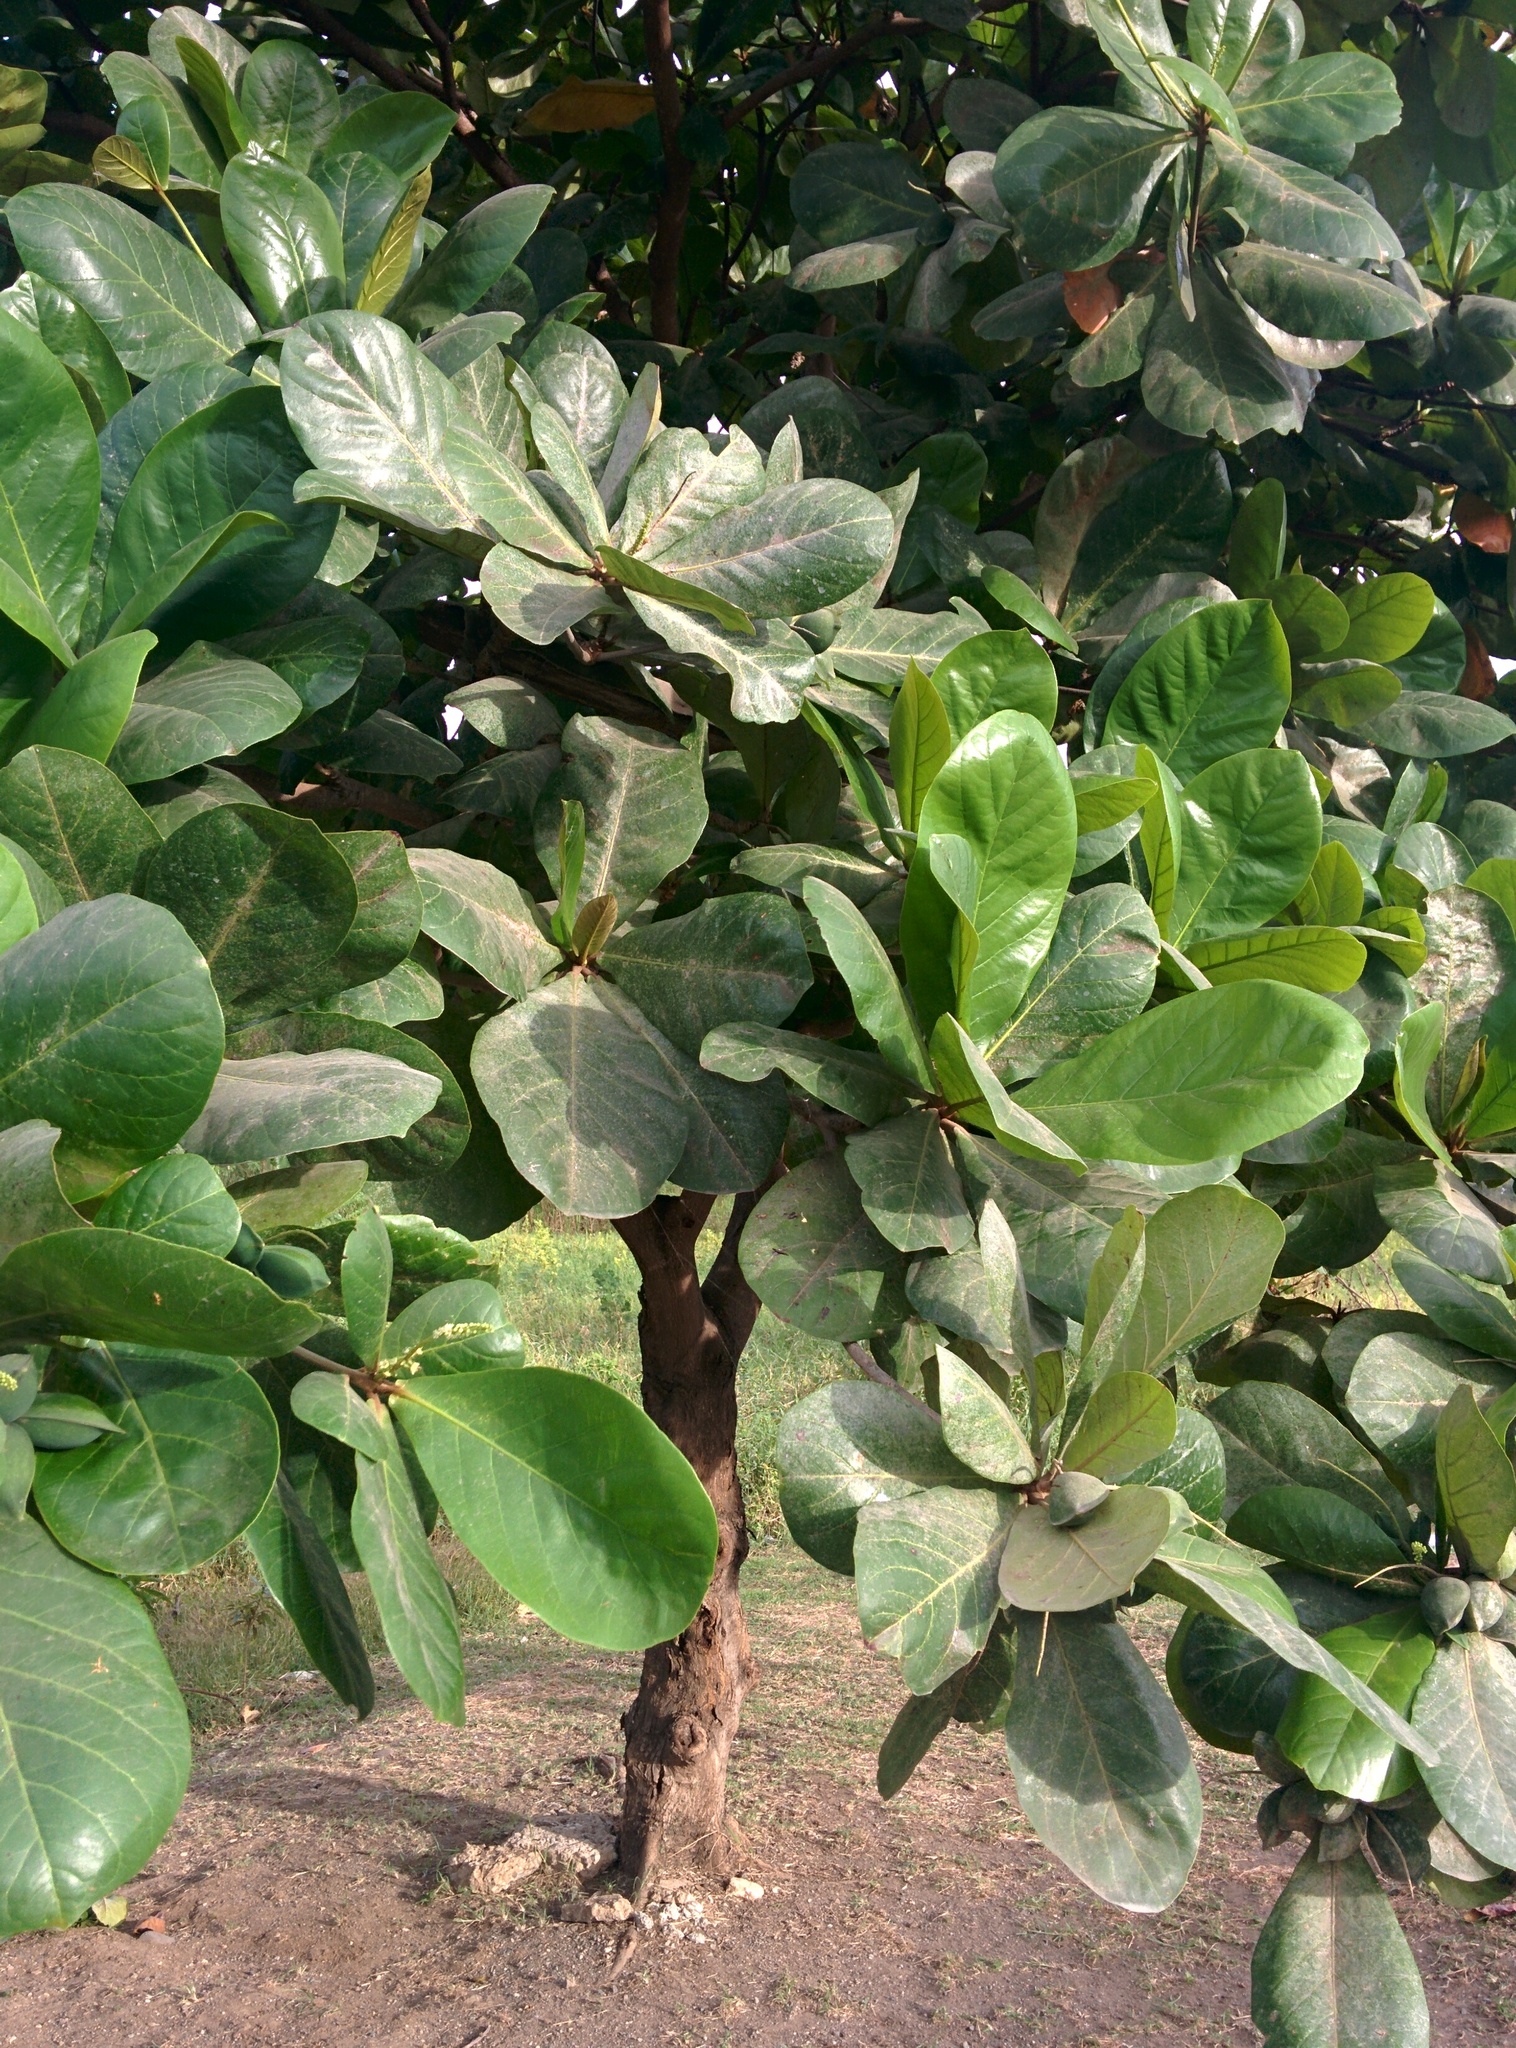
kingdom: Plantae
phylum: Tracheophyta
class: Magnoliopsida
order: Myrtales
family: Combretaceae
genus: Terminalia
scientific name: Terminalia catappa
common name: Tropical almond
